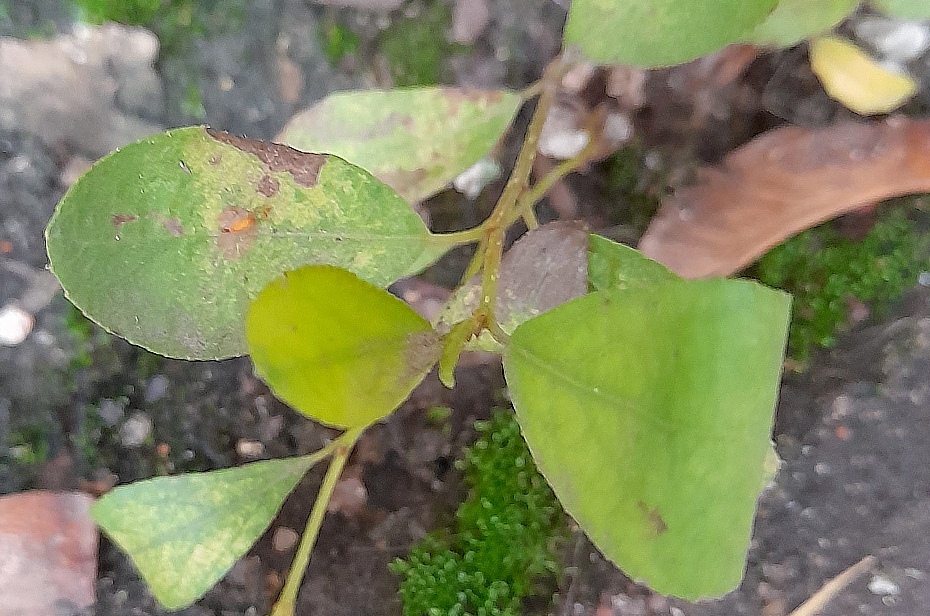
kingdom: Plantae
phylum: Tracheophyta
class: Magnoliopsida
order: Malpighiales
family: Salicaceae
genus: Salix
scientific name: Salix
